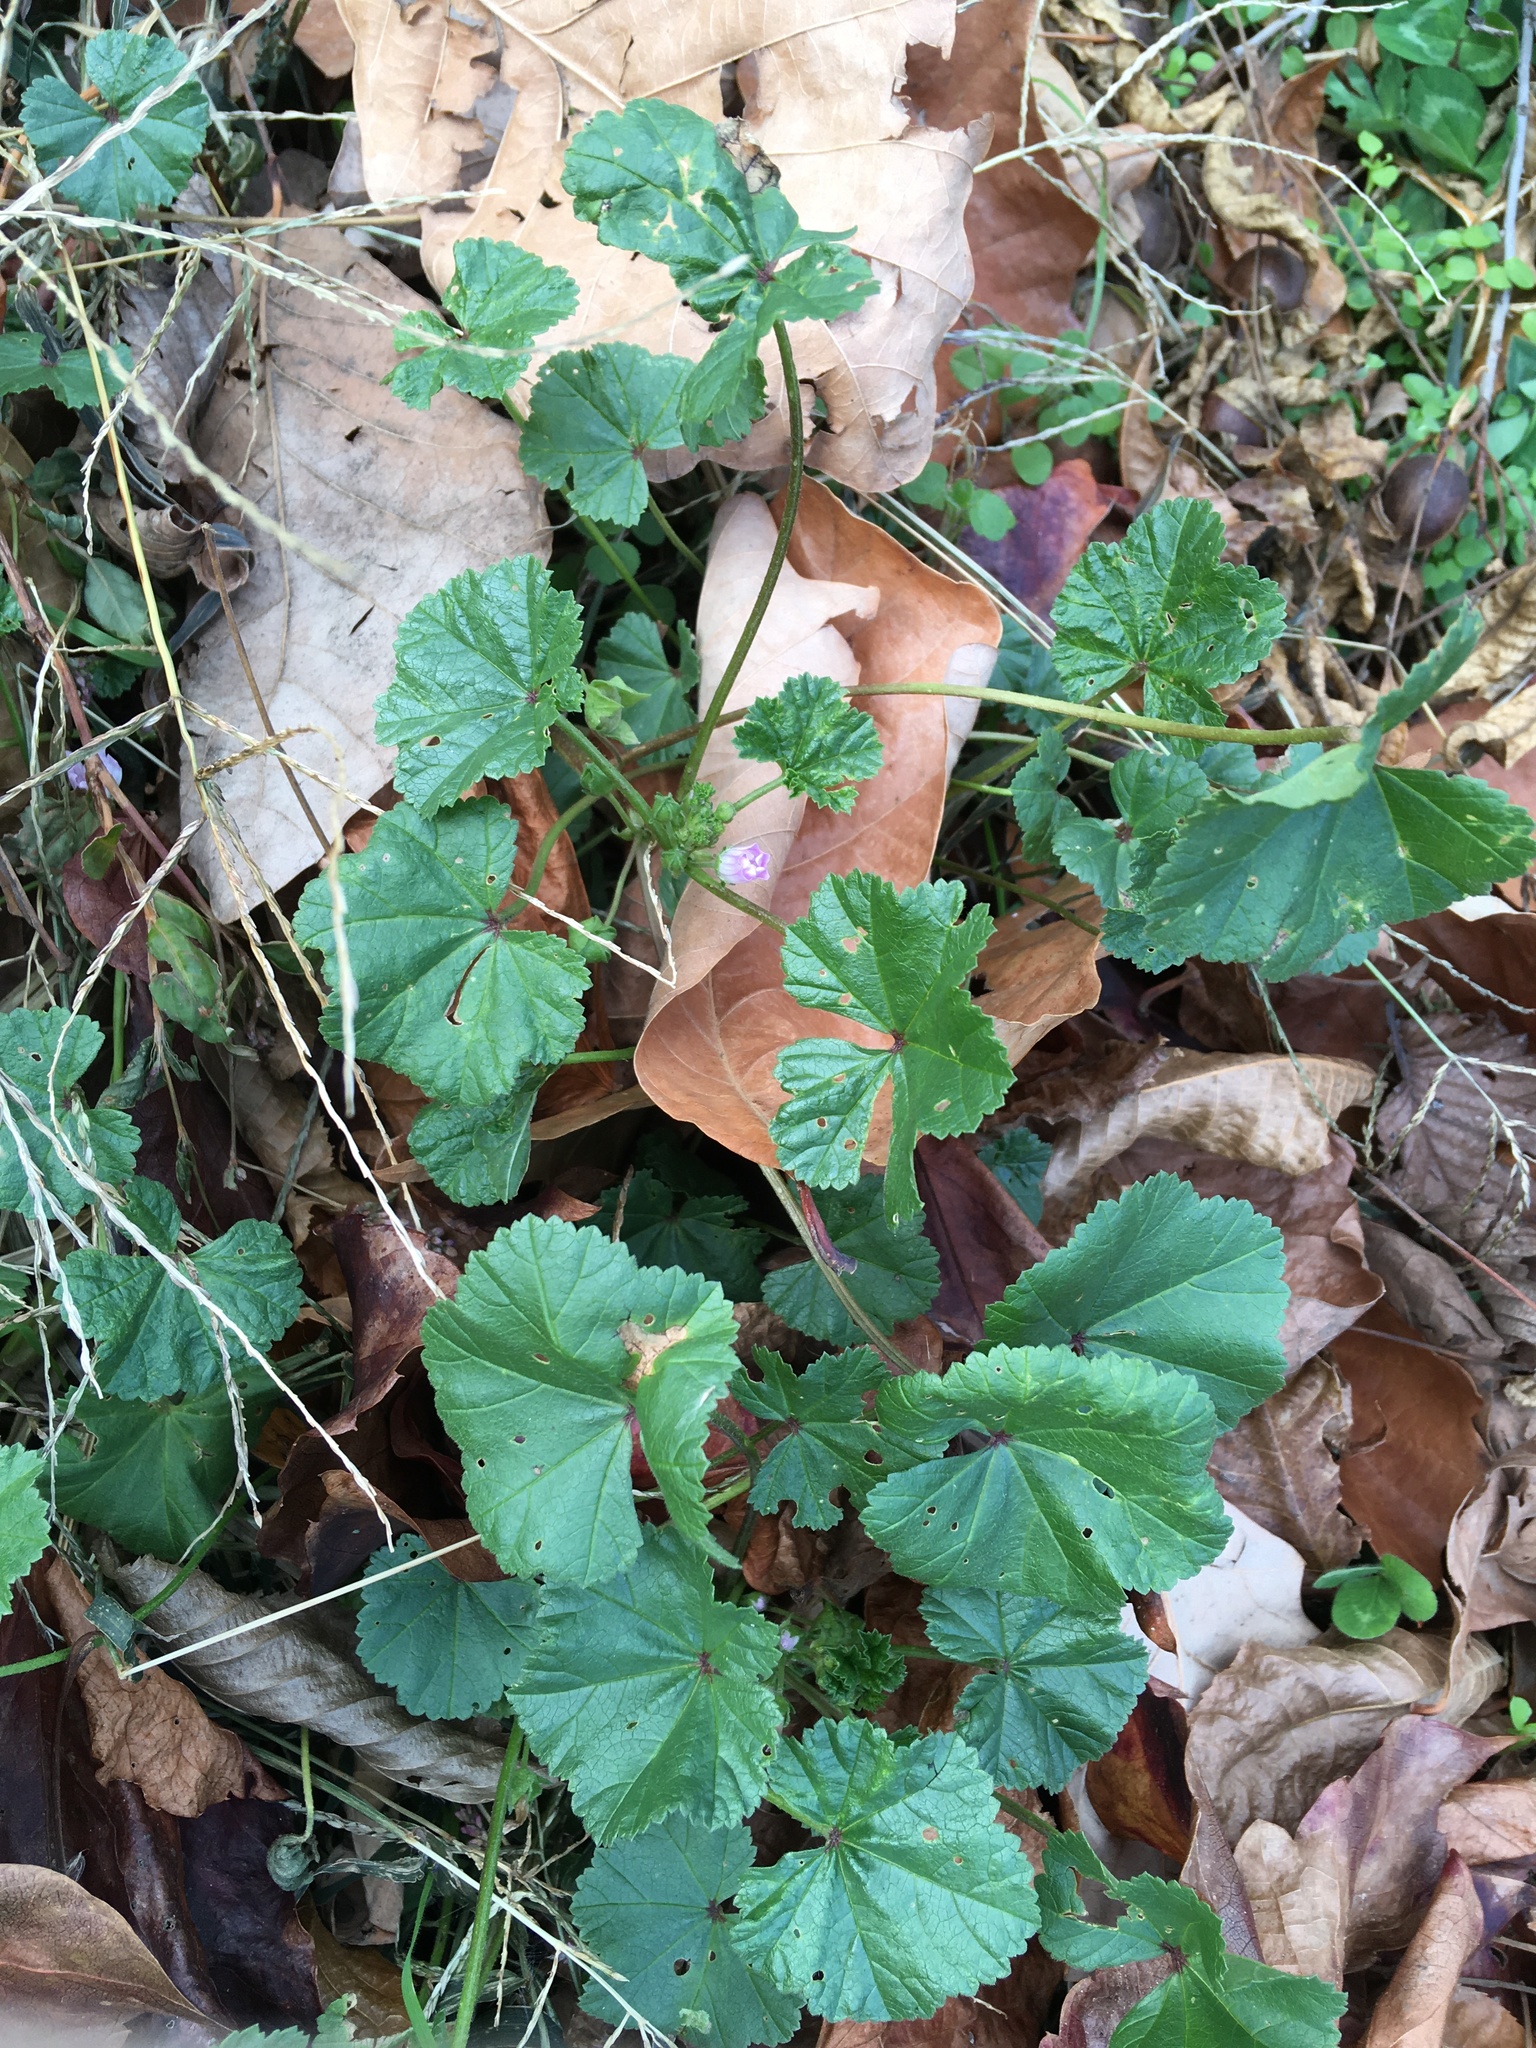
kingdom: Plantae
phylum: Tracheophyta
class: Magnoliopsida
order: Malvales
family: Malvaceae
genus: Malva
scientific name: Malva neglecta
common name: Common mallow
